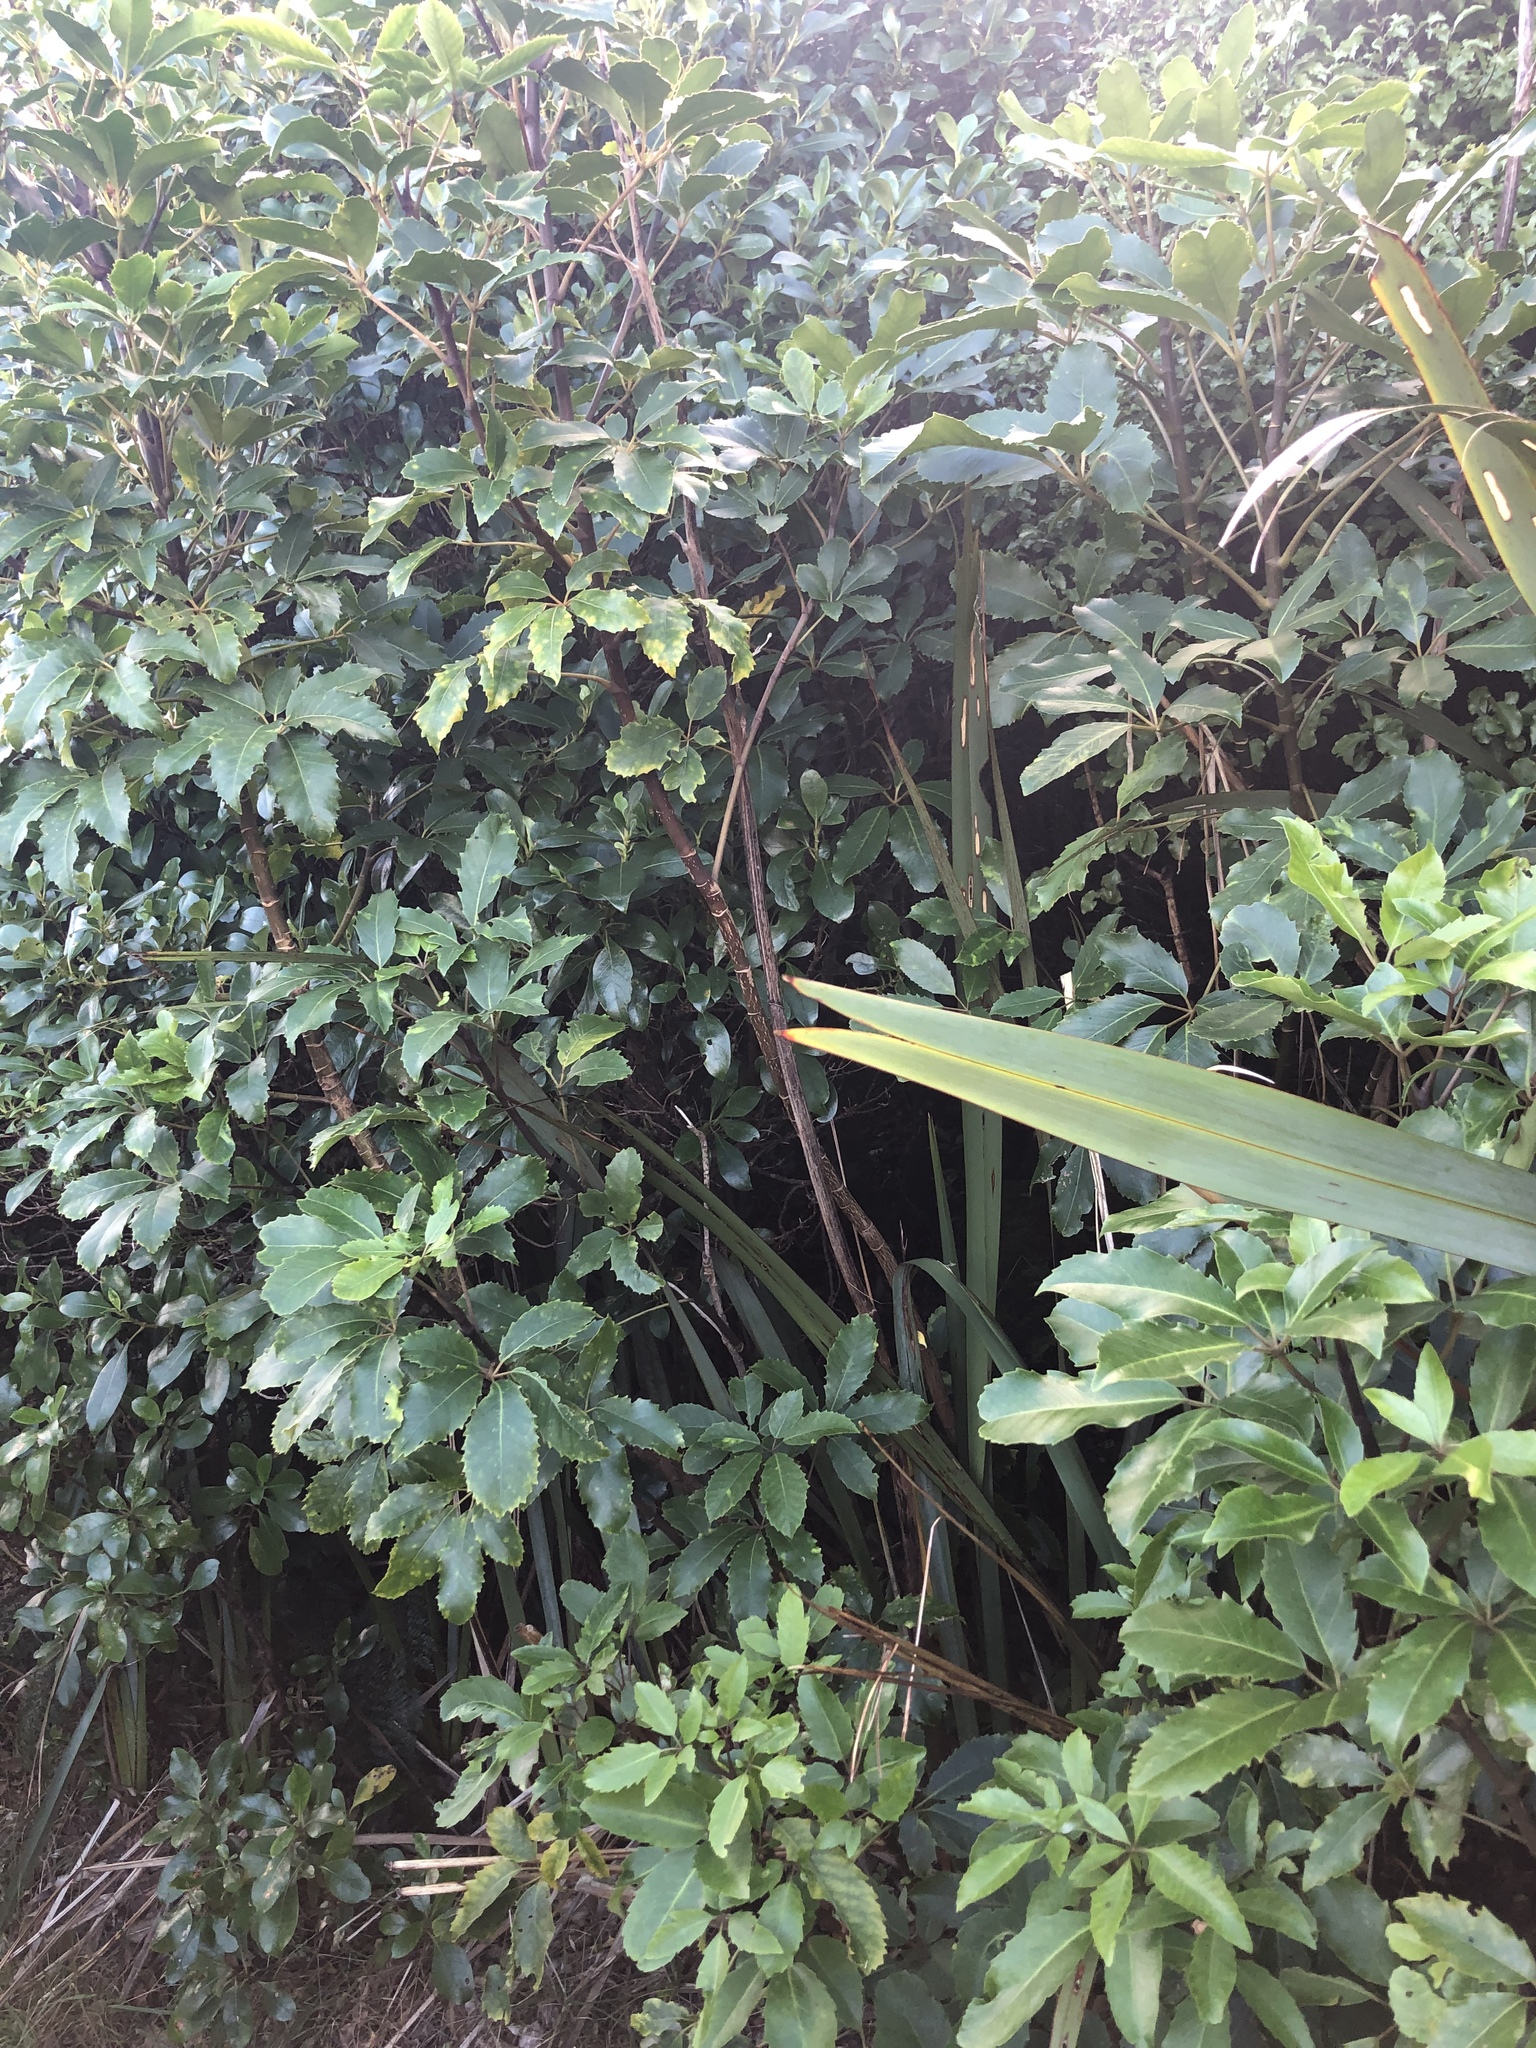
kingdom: Plantae
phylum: Tracheophyta
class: Magnoliopsida
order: Apiales
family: Araliaceae
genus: Neopanax
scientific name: Neopanax arboreus
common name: Five-fingers
